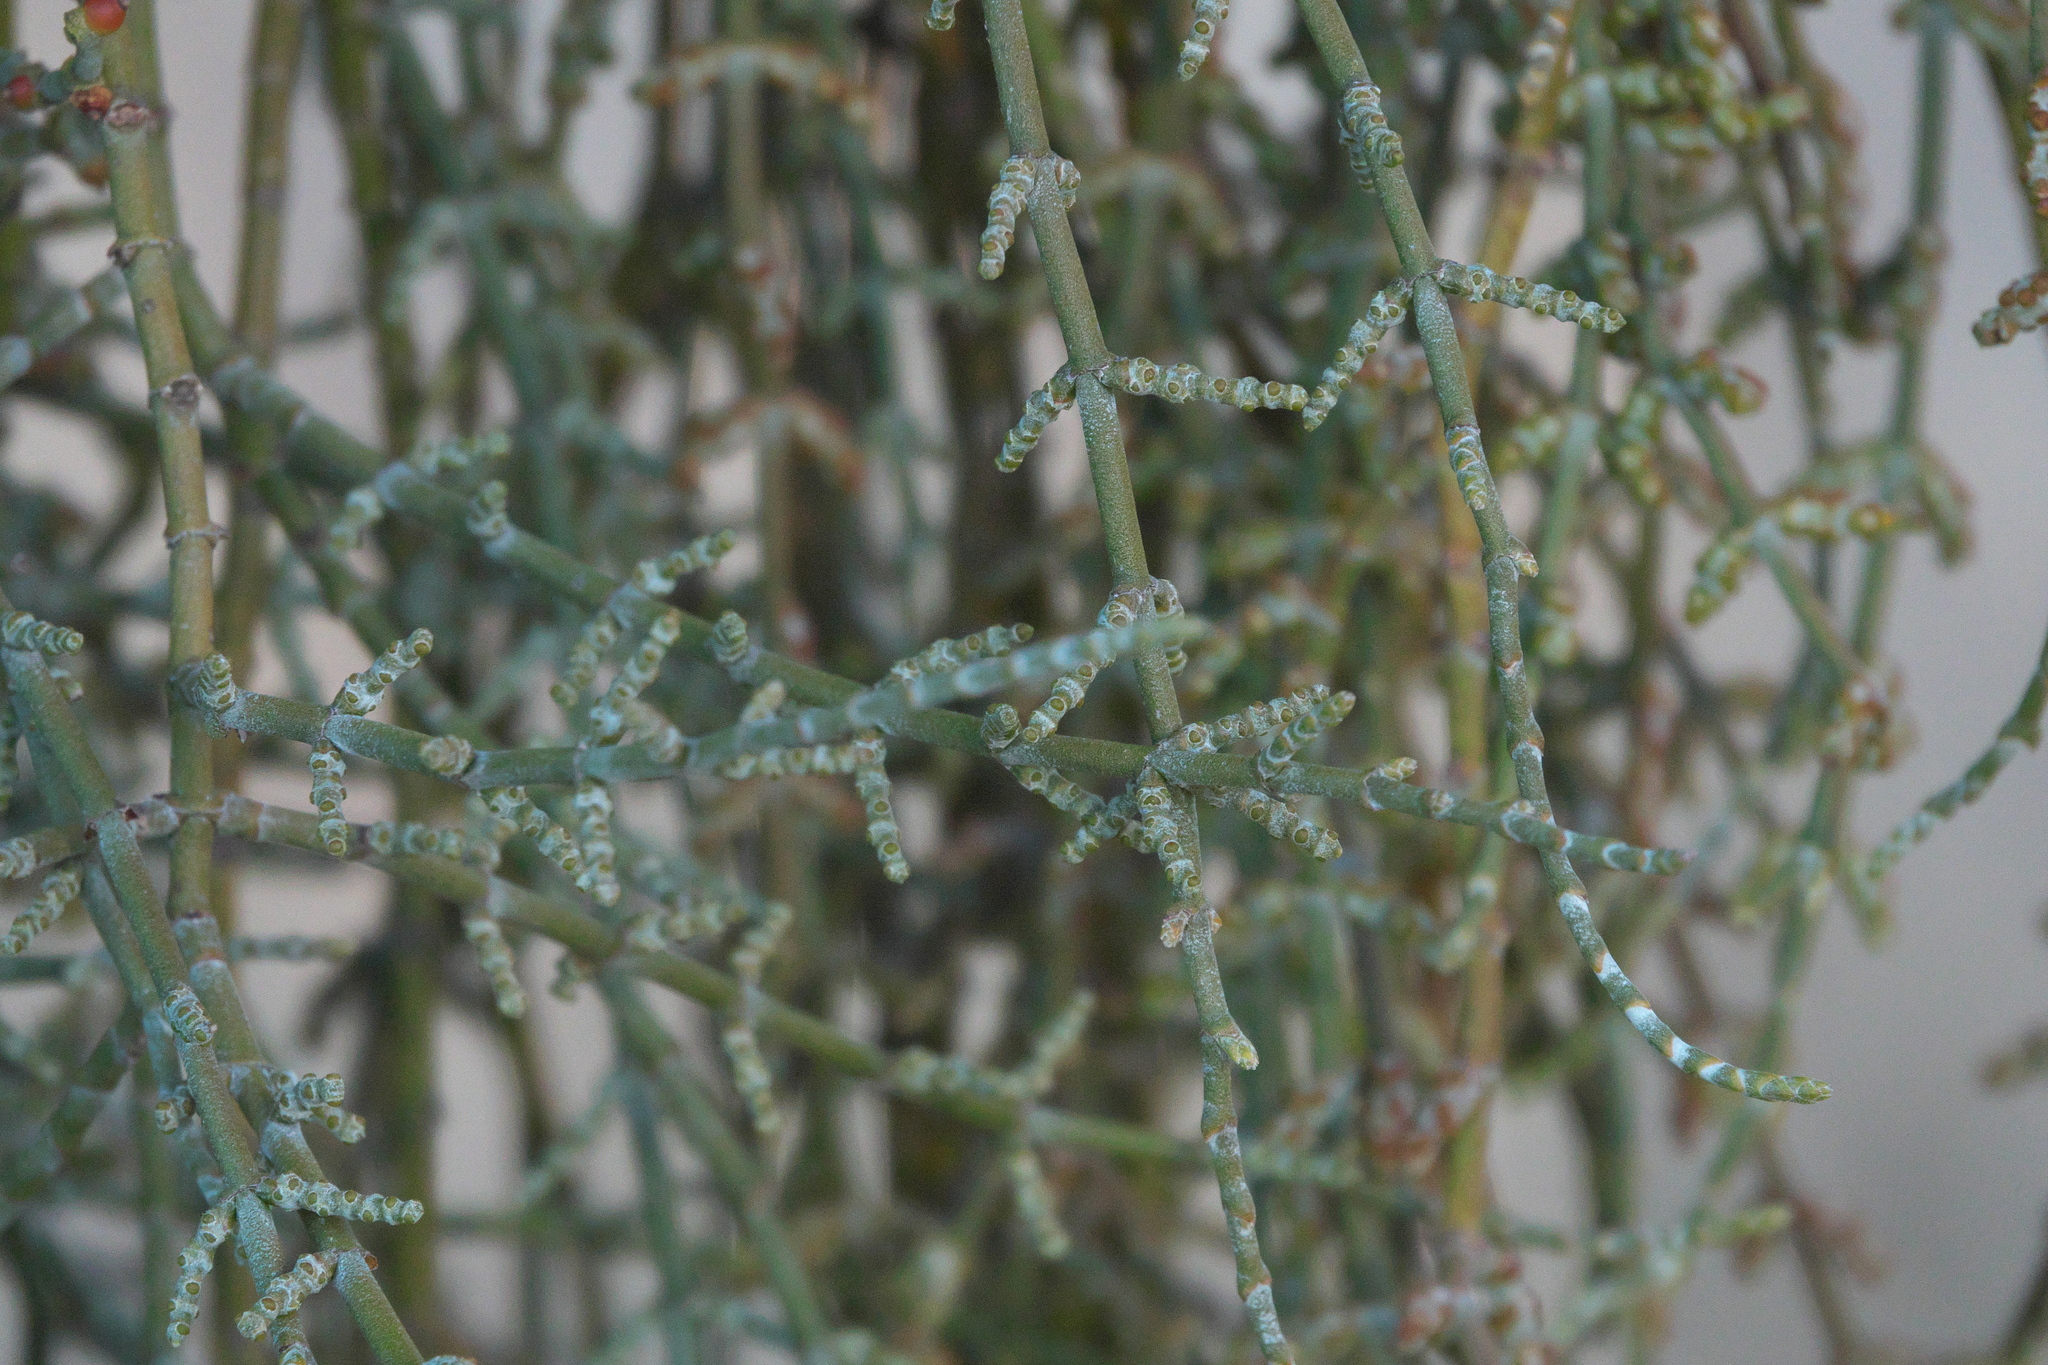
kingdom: Plantae
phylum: Tracheophyta
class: Magnoliopsida
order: Santalales
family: Viscaceae
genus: Phoradendron
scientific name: Phoradendron californicum
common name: Acacia mistletoe
